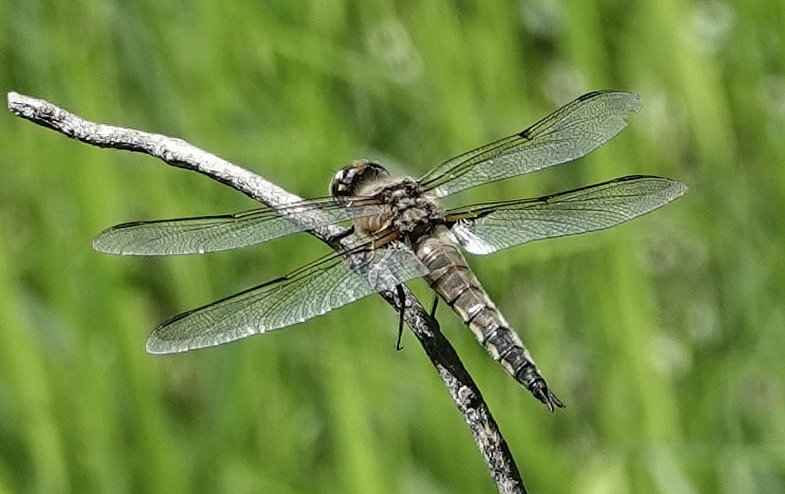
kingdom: Animalia
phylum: Arthropoda
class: Insecta
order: Odonata
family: Libellulidae
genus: Libellula
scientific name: Libellula quadrimaculata
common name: Four-spotted chaser
